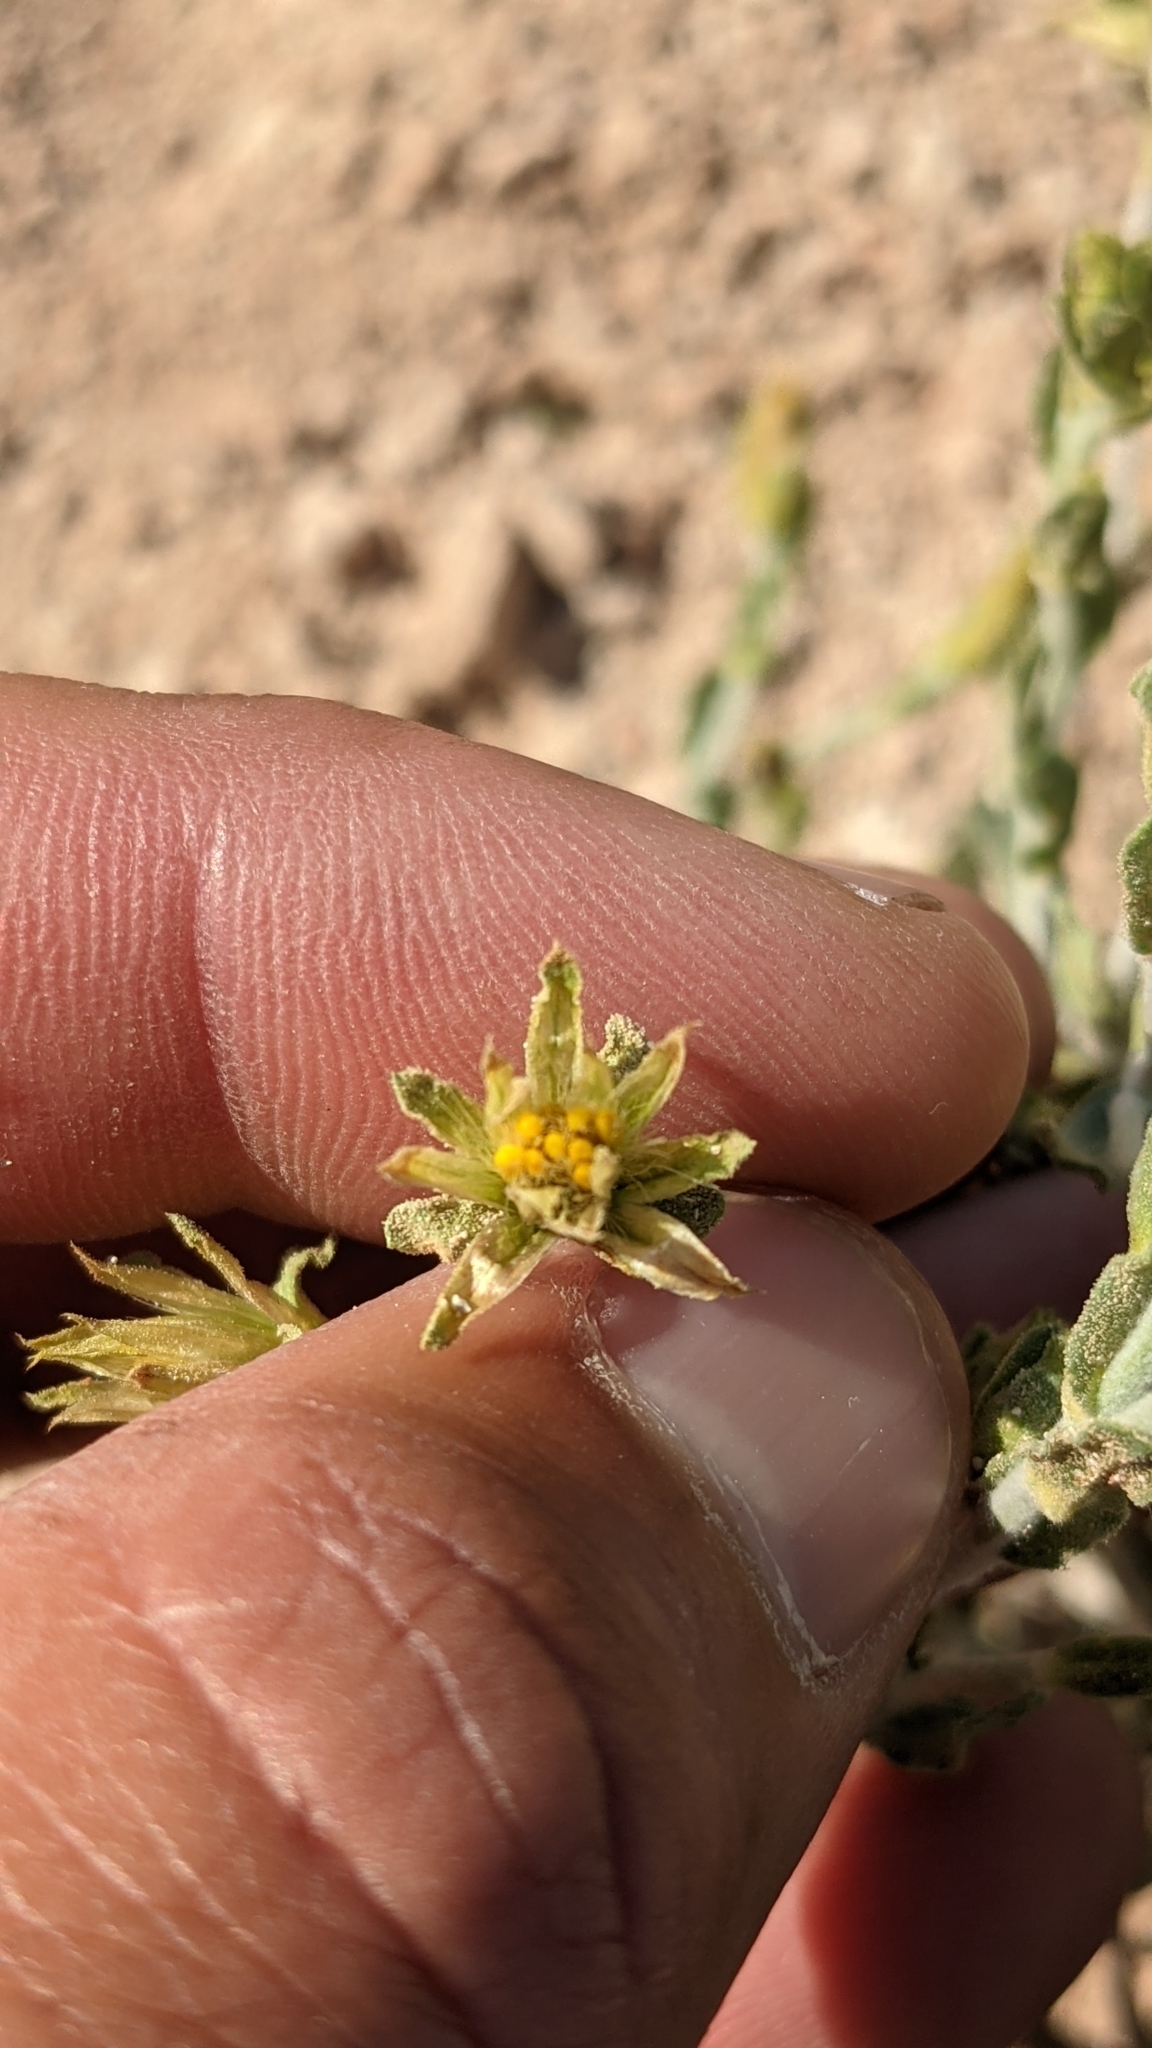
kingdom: Plantae
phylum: Tracheophyta
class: Magnoliopsida
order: Asterales
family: Asteraceae
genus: Ericameria
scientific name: Ericameria discoidea
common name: Sharp-scale goldenweed
